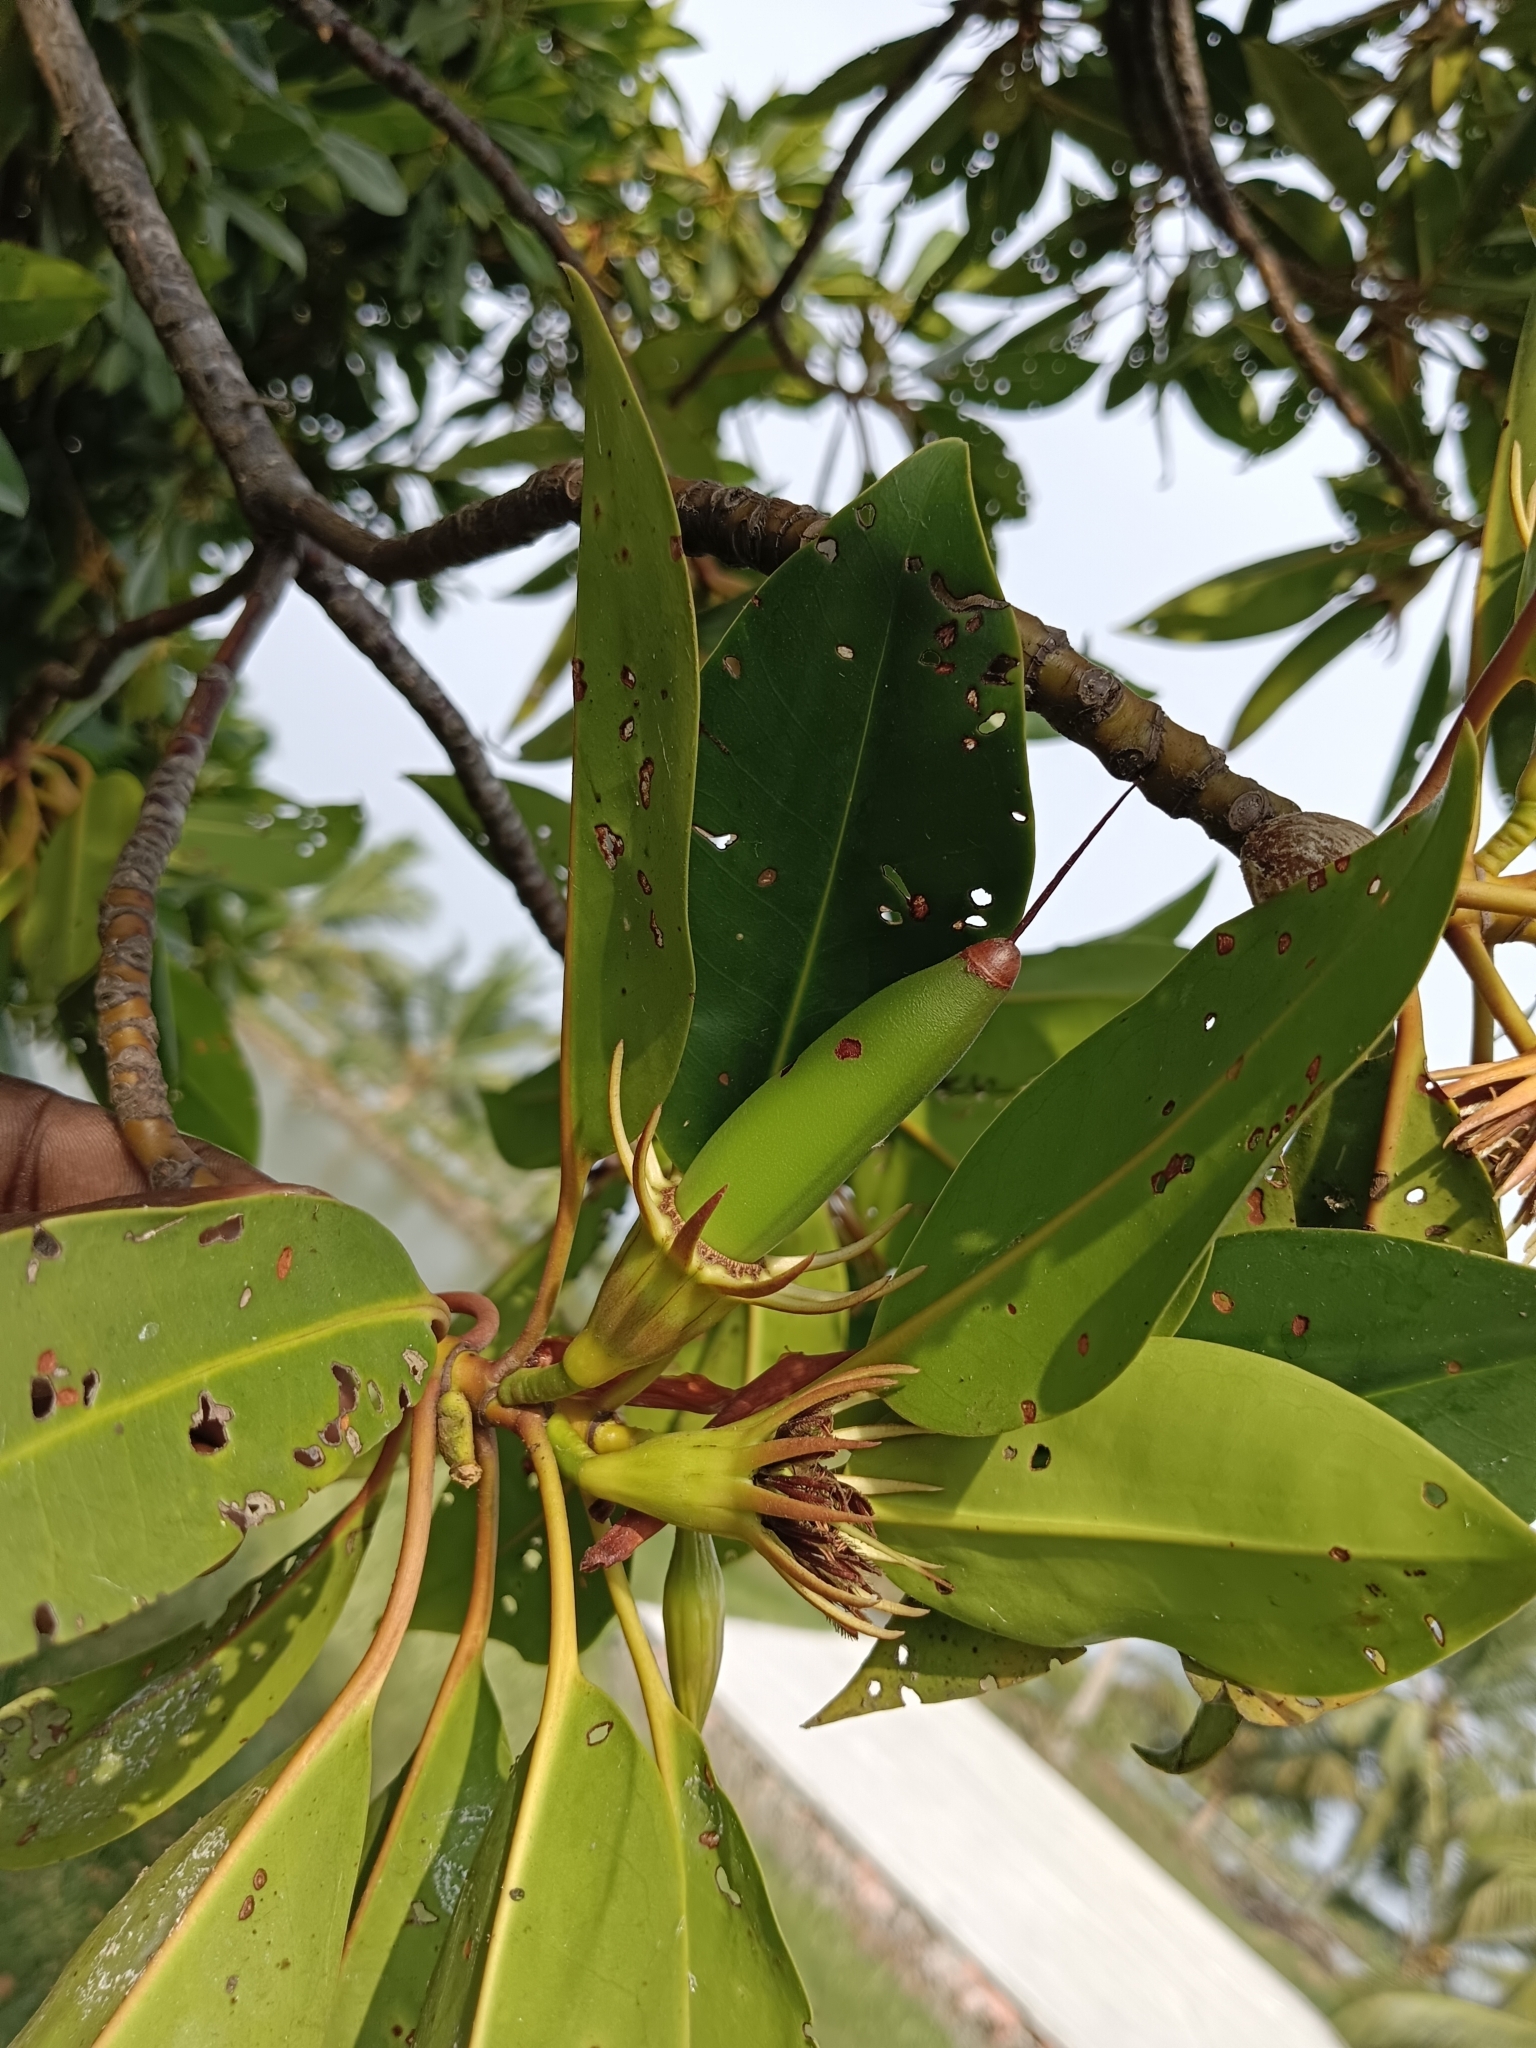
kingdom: Plantae
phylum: Tracheophyta
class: Magnoliopsida
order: Malpighiales
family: Rhizophoraceae
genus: Bruguiera
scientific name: Bruguiera sexangula
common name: Oriental mangrove
